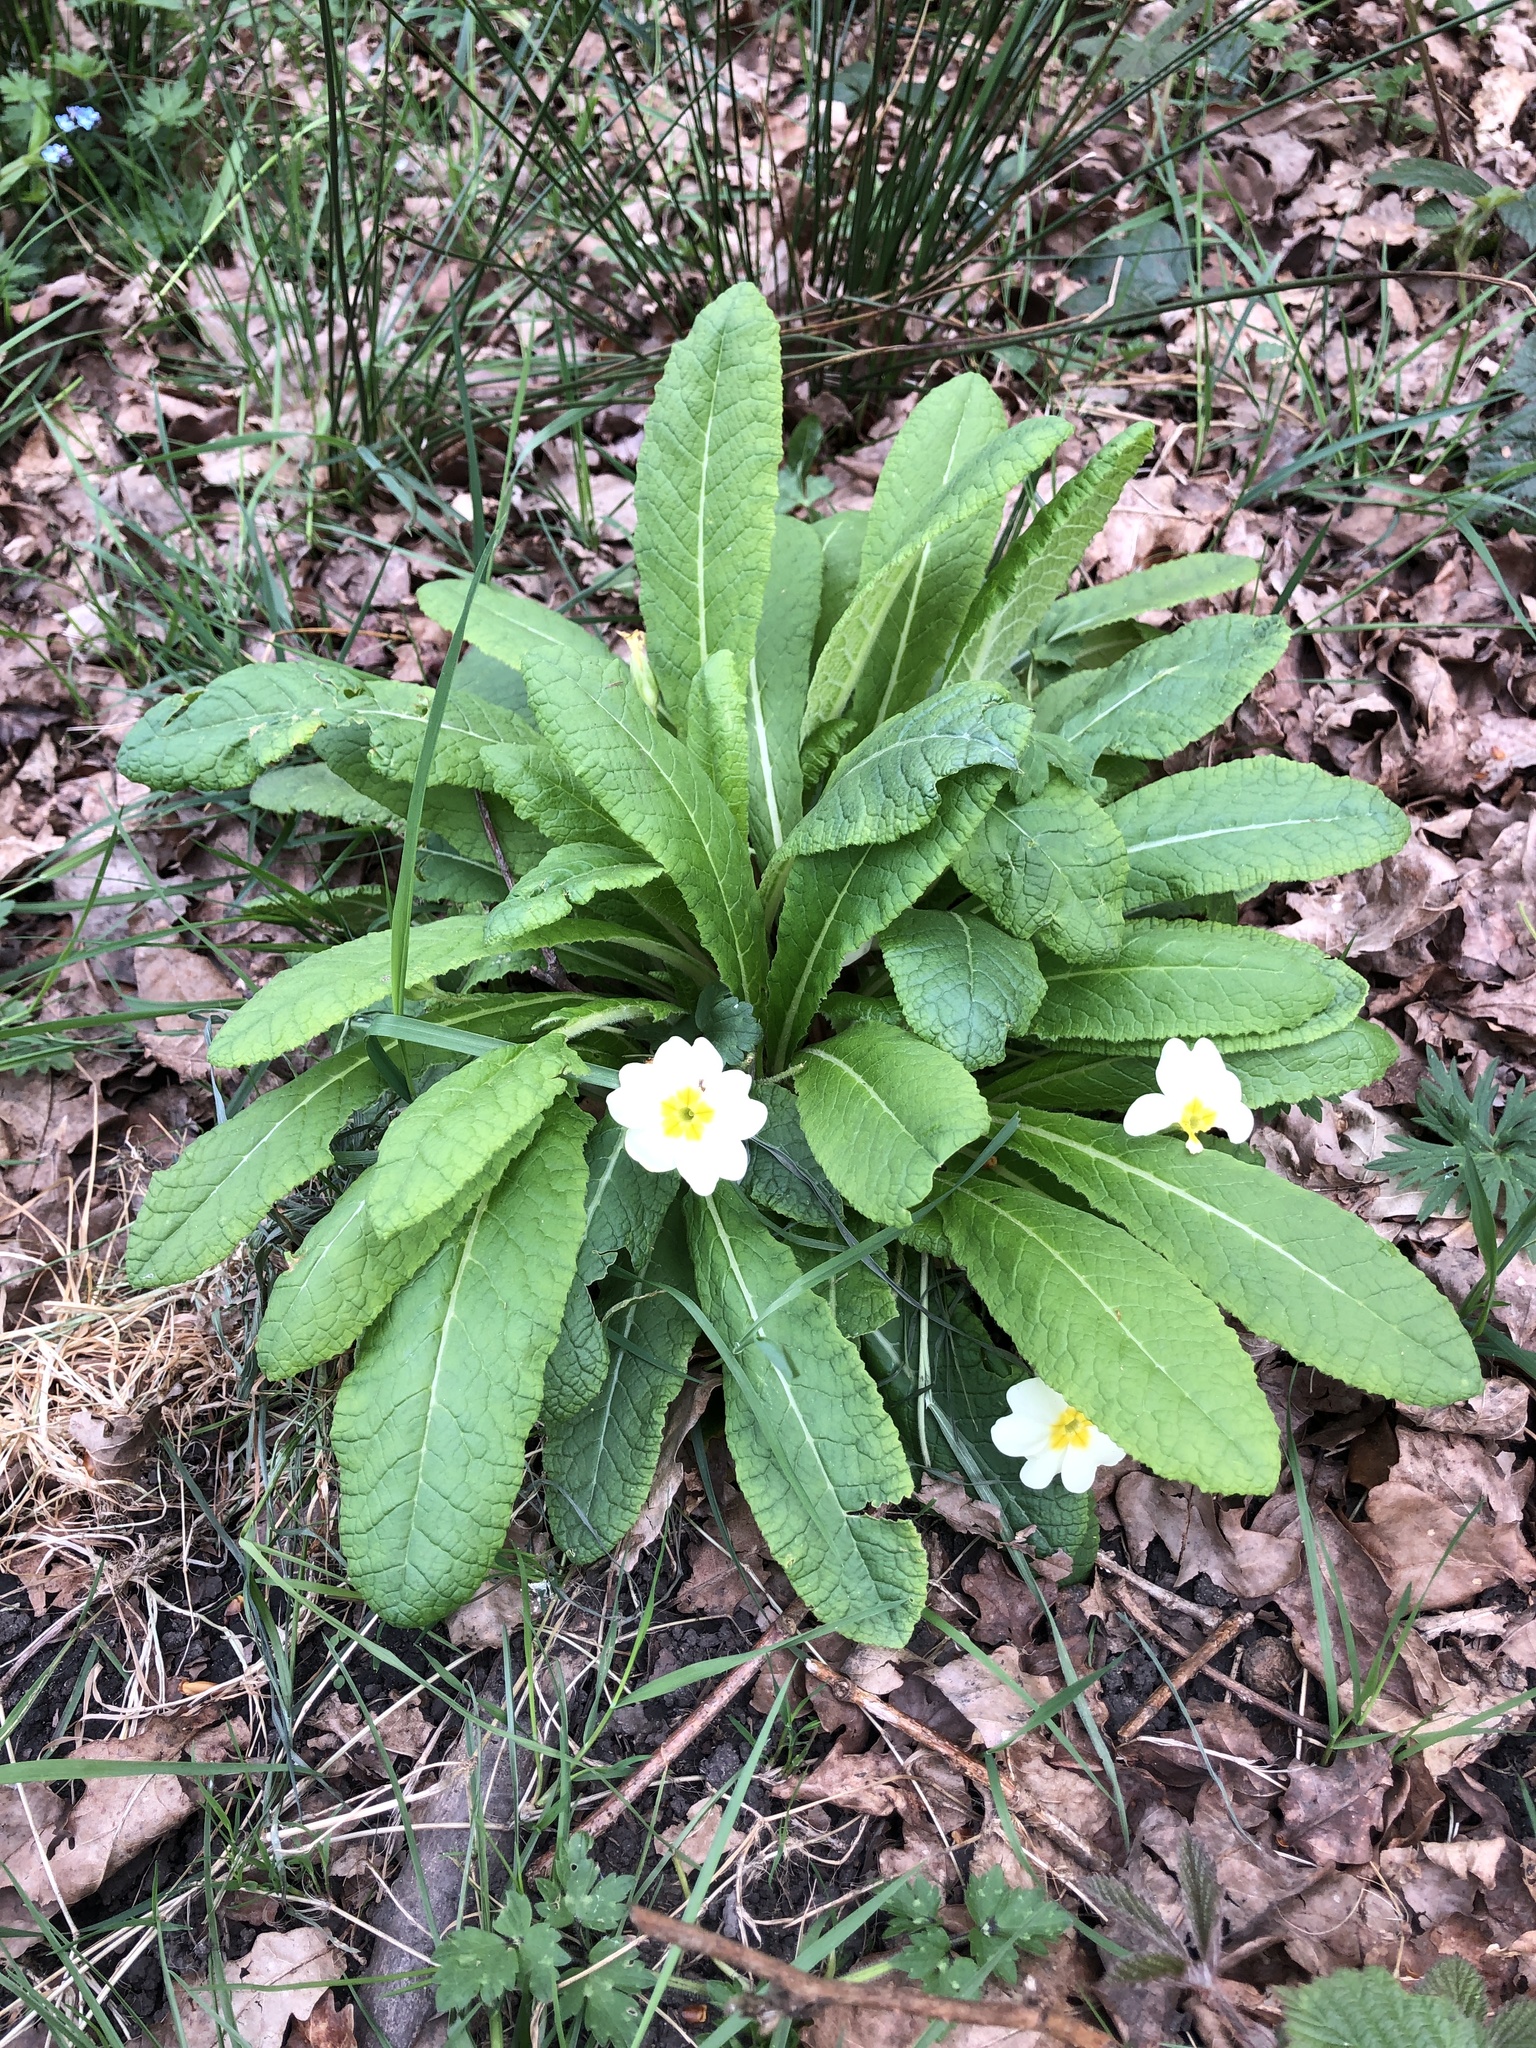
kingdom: Plantae
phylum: Tracheophyta
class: Magnoliopsida
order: Ericales
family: Primulaceae
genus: Primula
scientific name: Primula vulgaris
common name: Primrose
